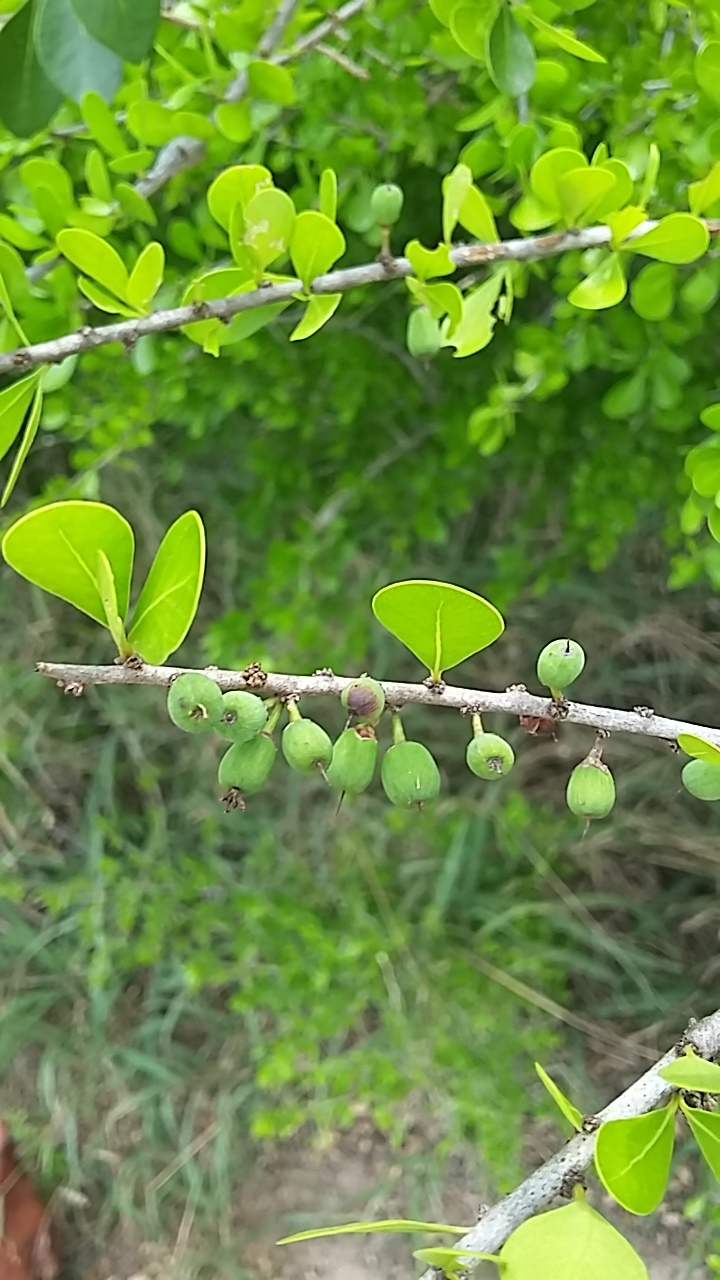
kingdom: Plantae
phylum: Tracheophyta
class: Magnoliopsida
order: Ericales
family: Sapotaceae
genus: Sideroxylon
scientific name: Sideroxylon celastrinum
